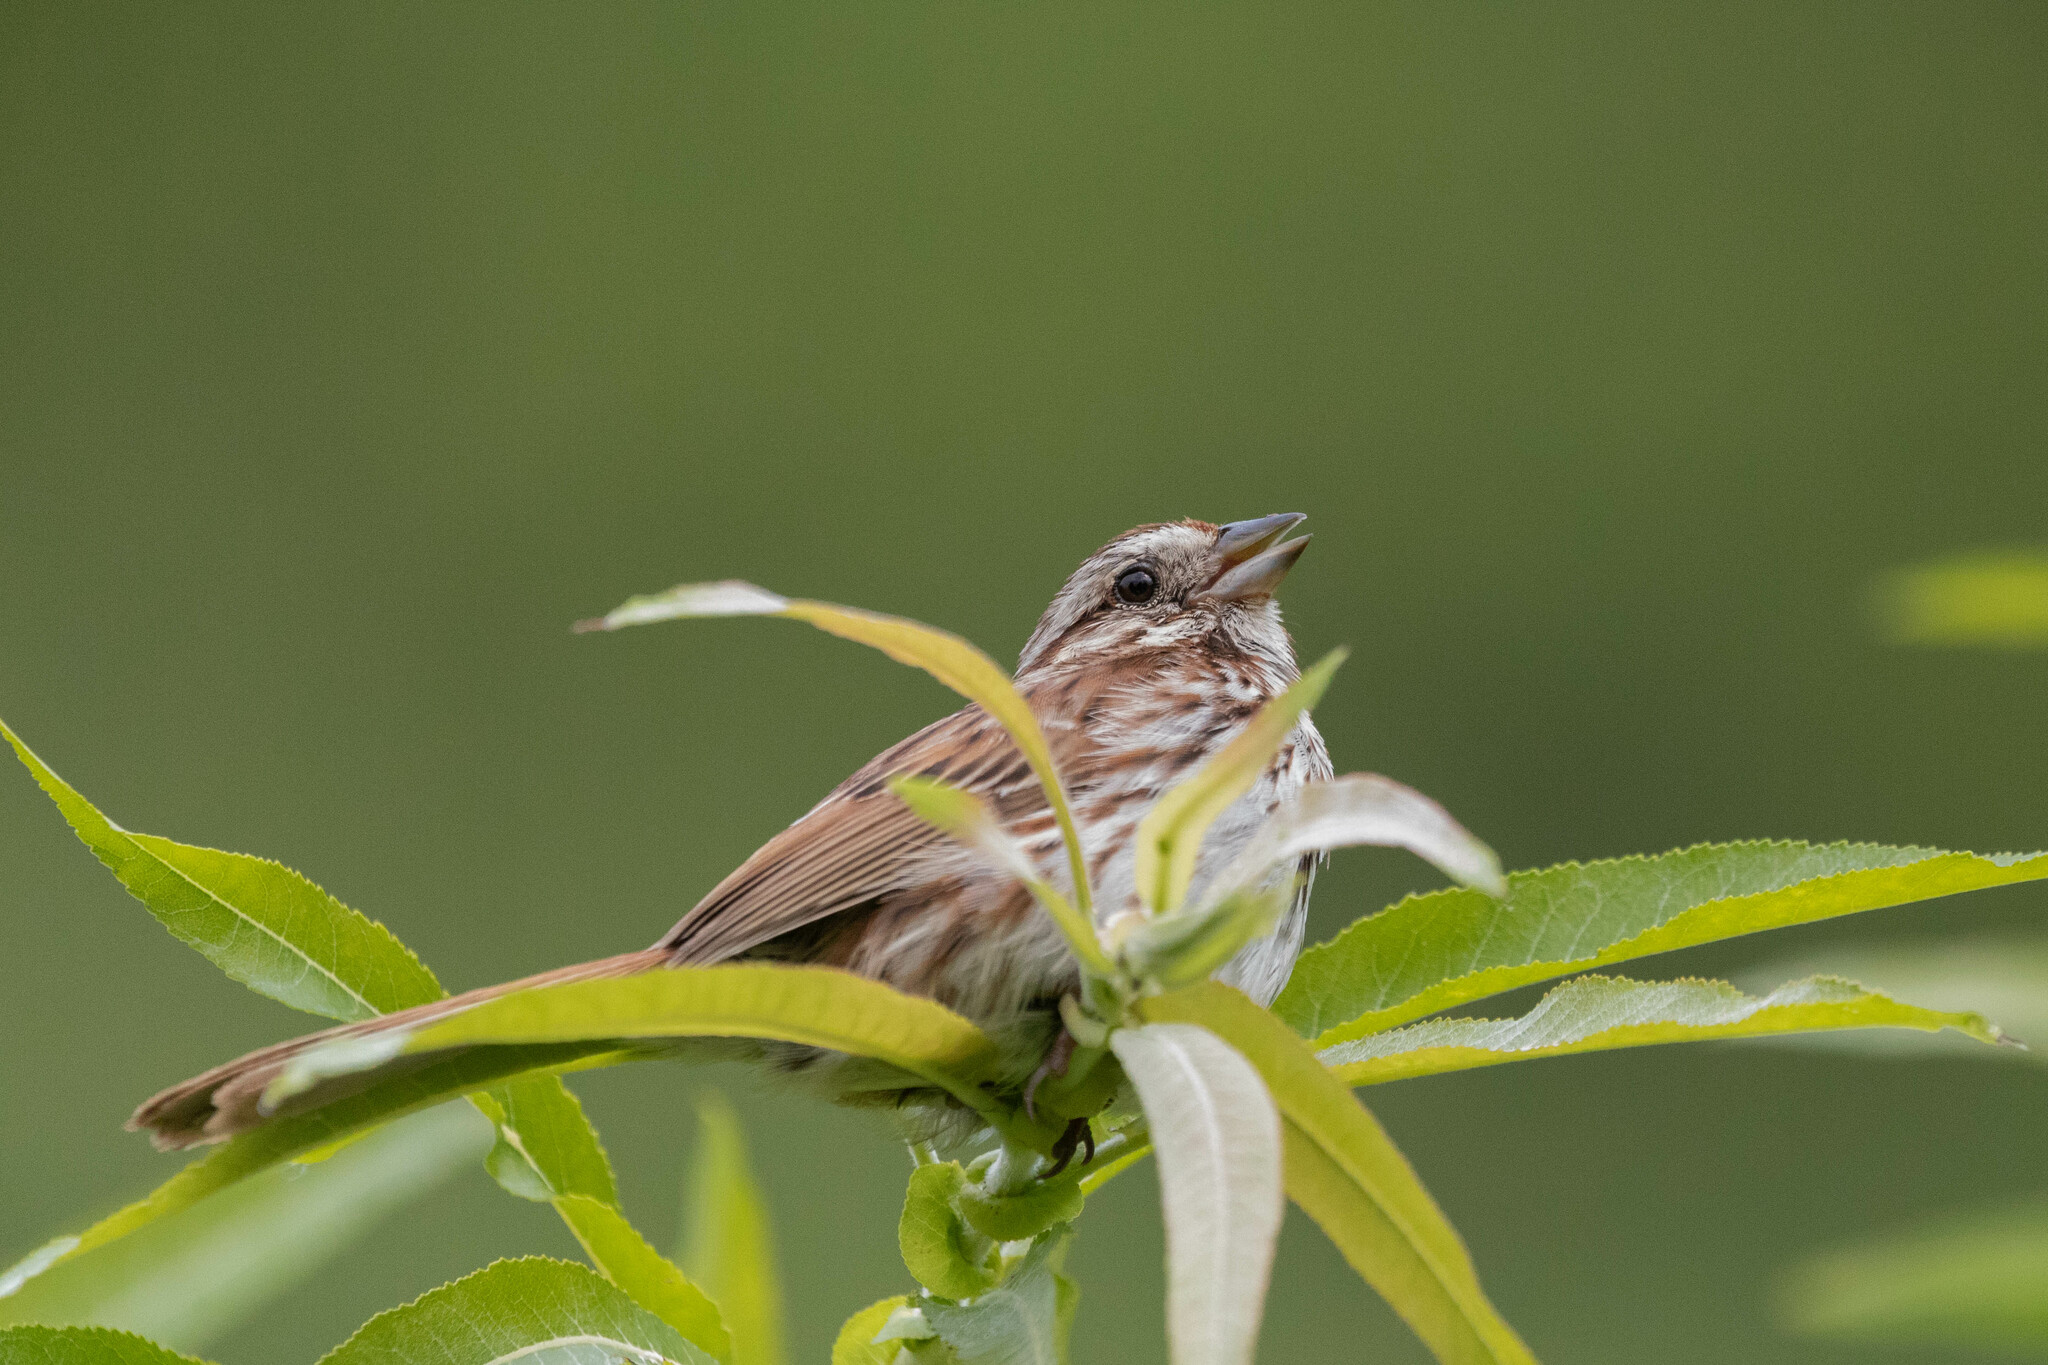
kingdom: Animalia
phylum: Chordata
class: Aves
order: Passeriformes
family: Passerellidae
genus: Melospiza
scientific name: Melospiza melodia
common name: Song sparrow
